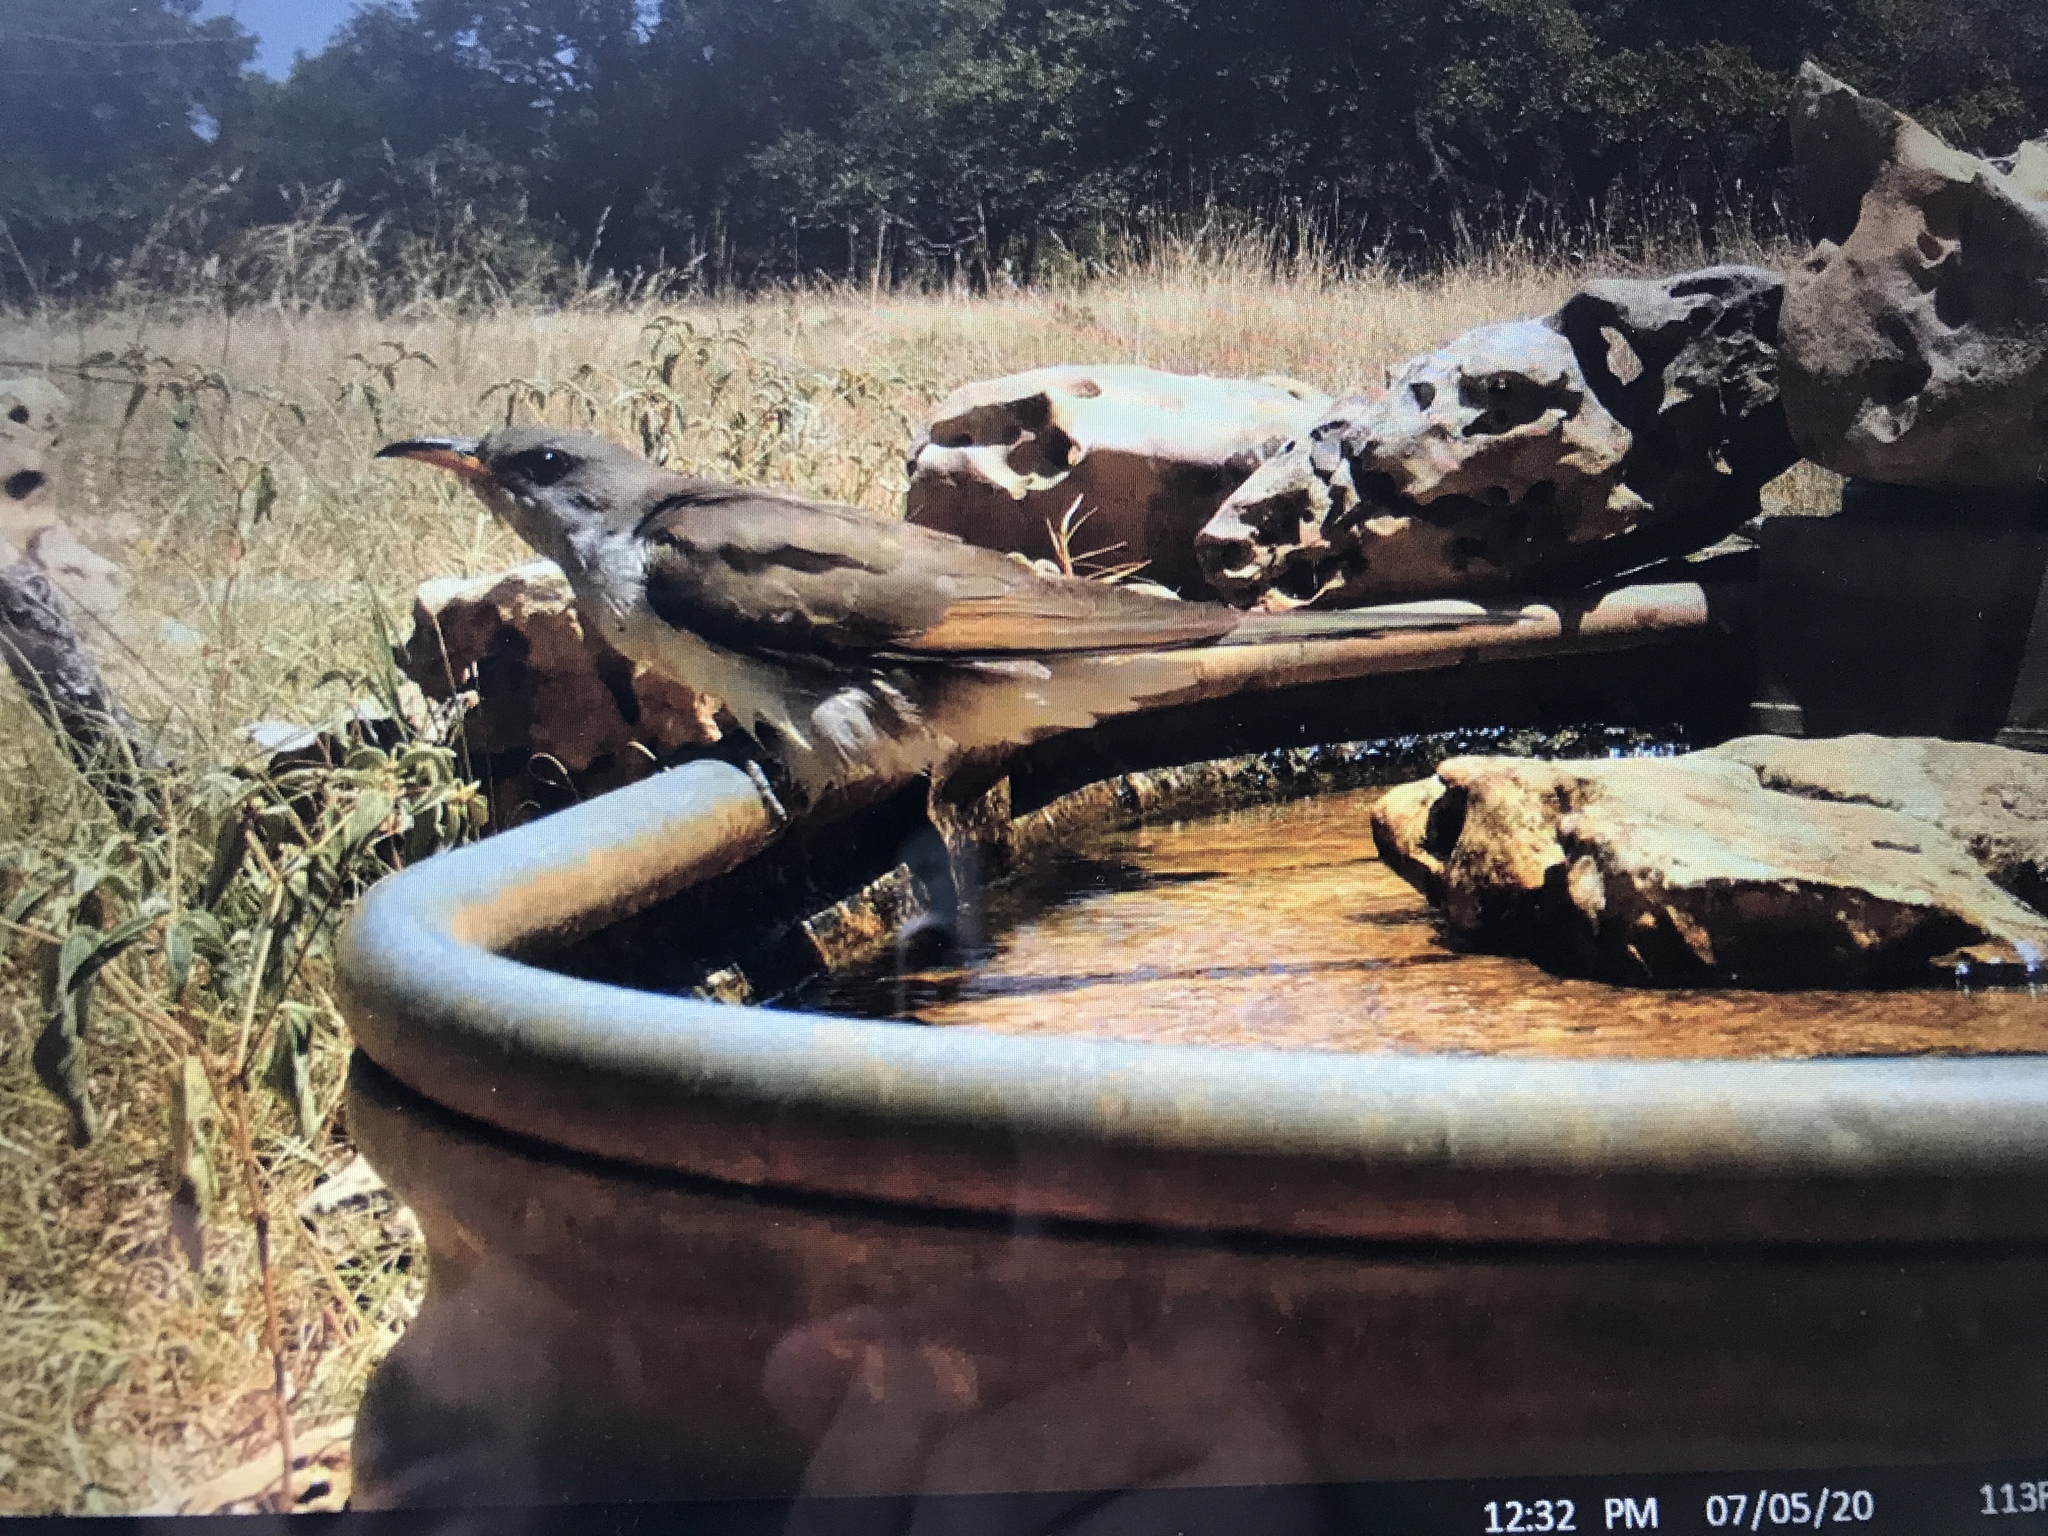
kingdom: Animalia
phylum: Chordata
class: Aves
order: Cuculiformes
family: Cuculidae
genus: Coccyzus
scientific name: Coccyzus americanus
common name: Yellow-billed cuckoo
